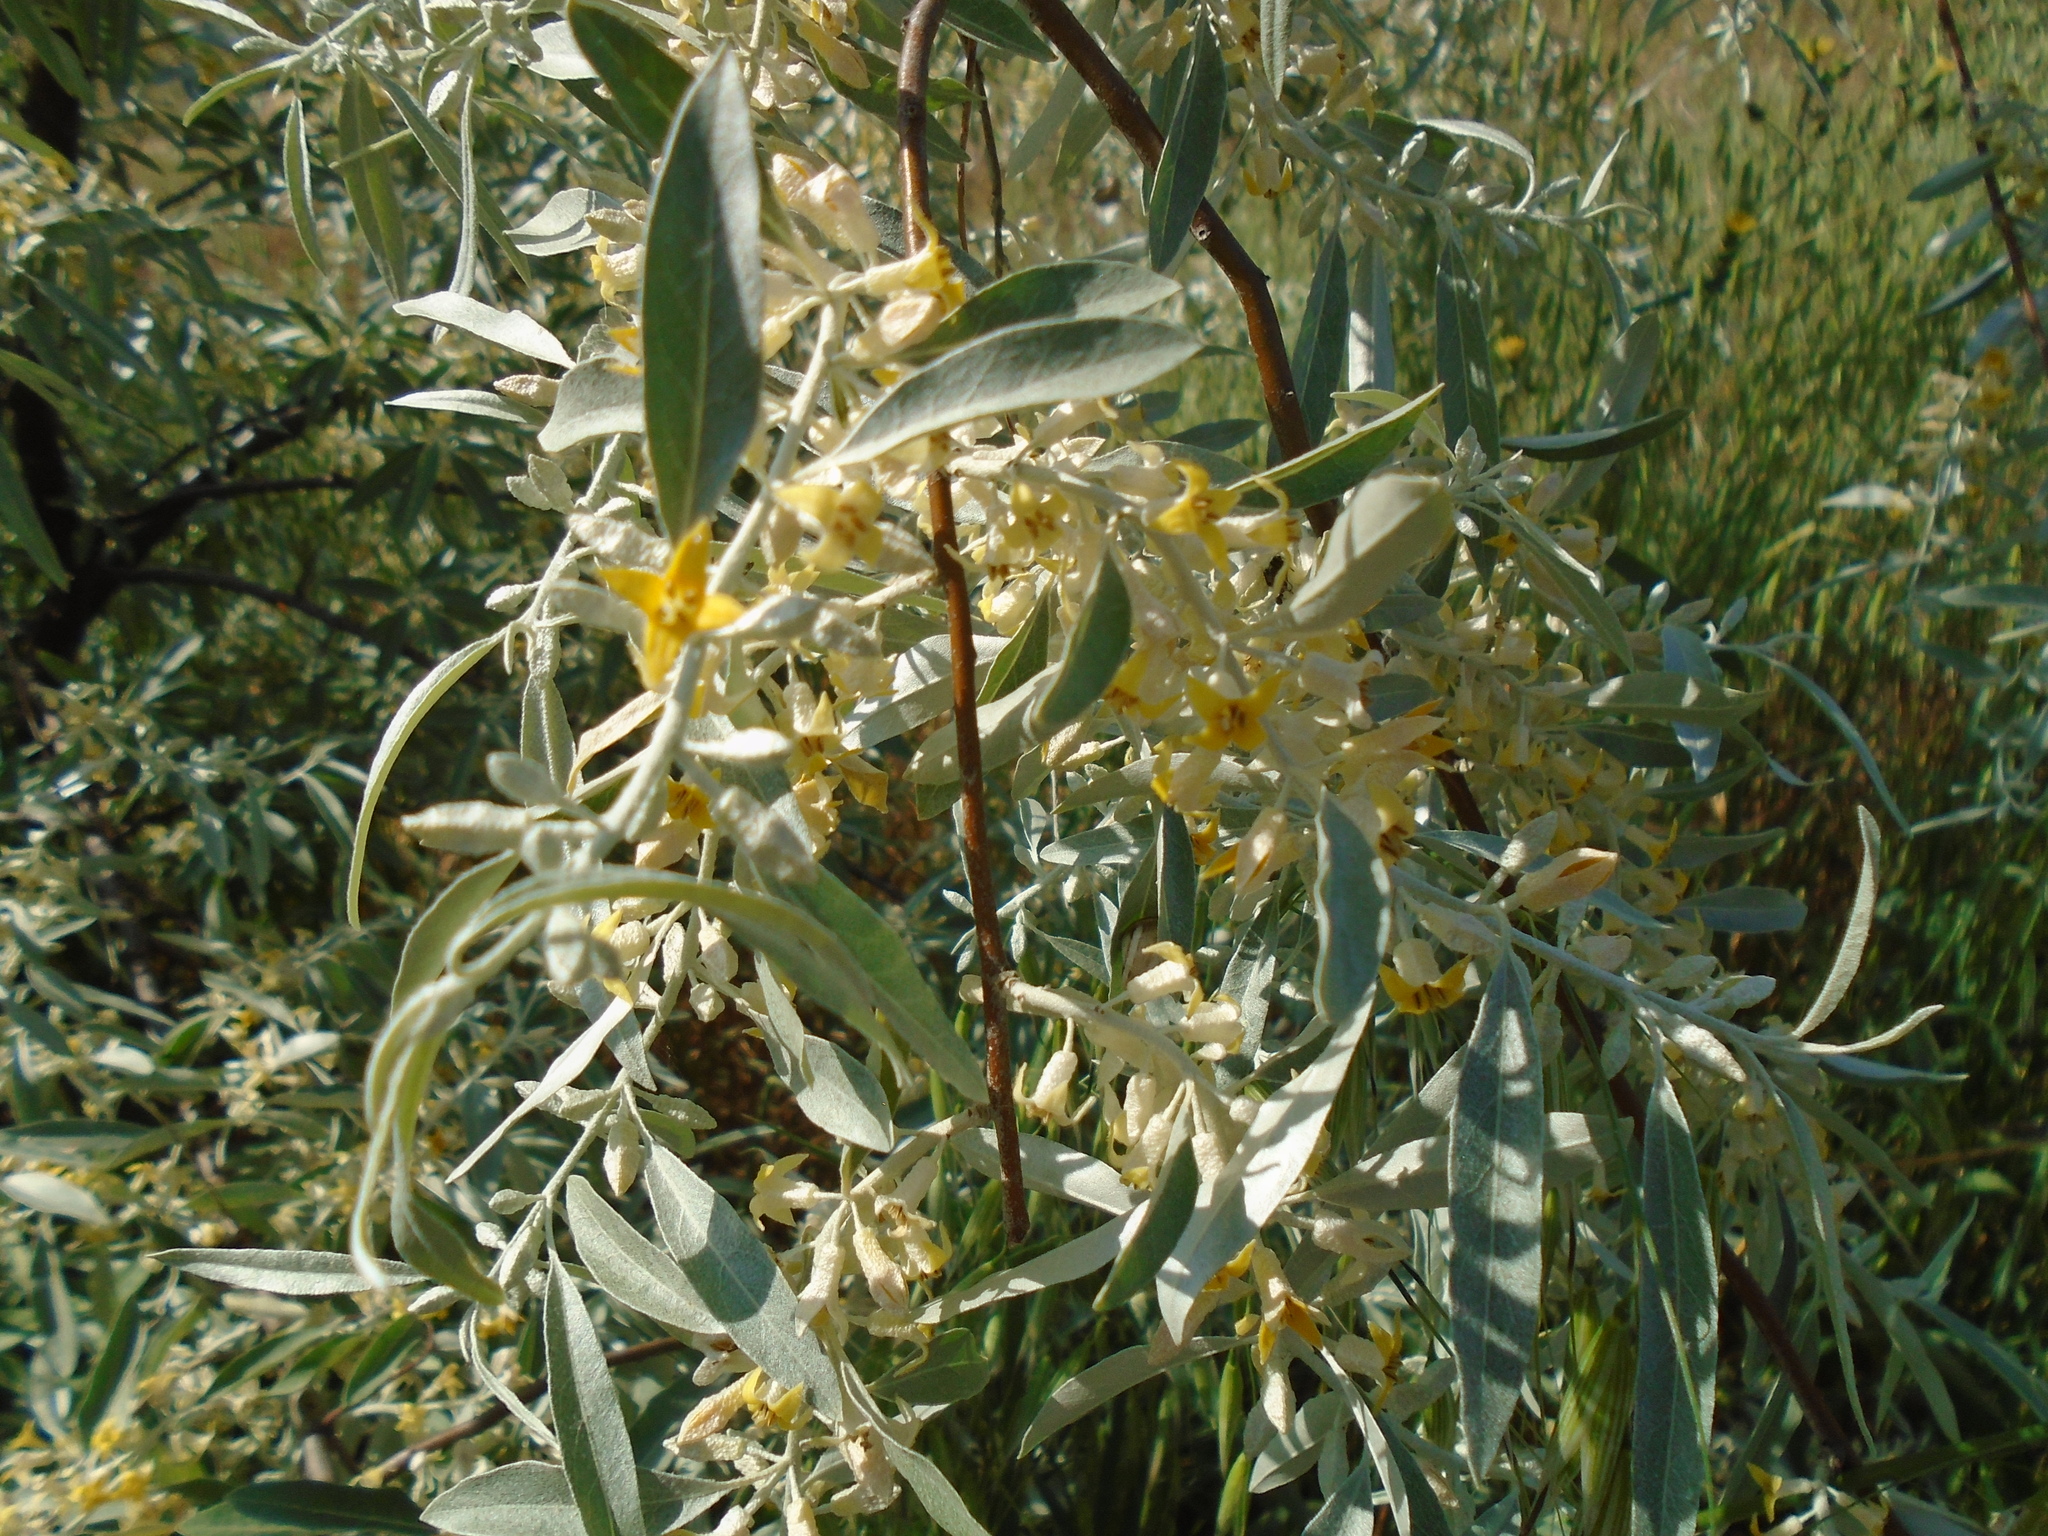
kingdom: Plantae
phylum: Tracheophyta
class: Magnoliopsida
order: Rosales
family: Elaeagnaceae
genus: Elaeagnus
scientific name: Elaeagnus angustifolia
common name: Russian olive
